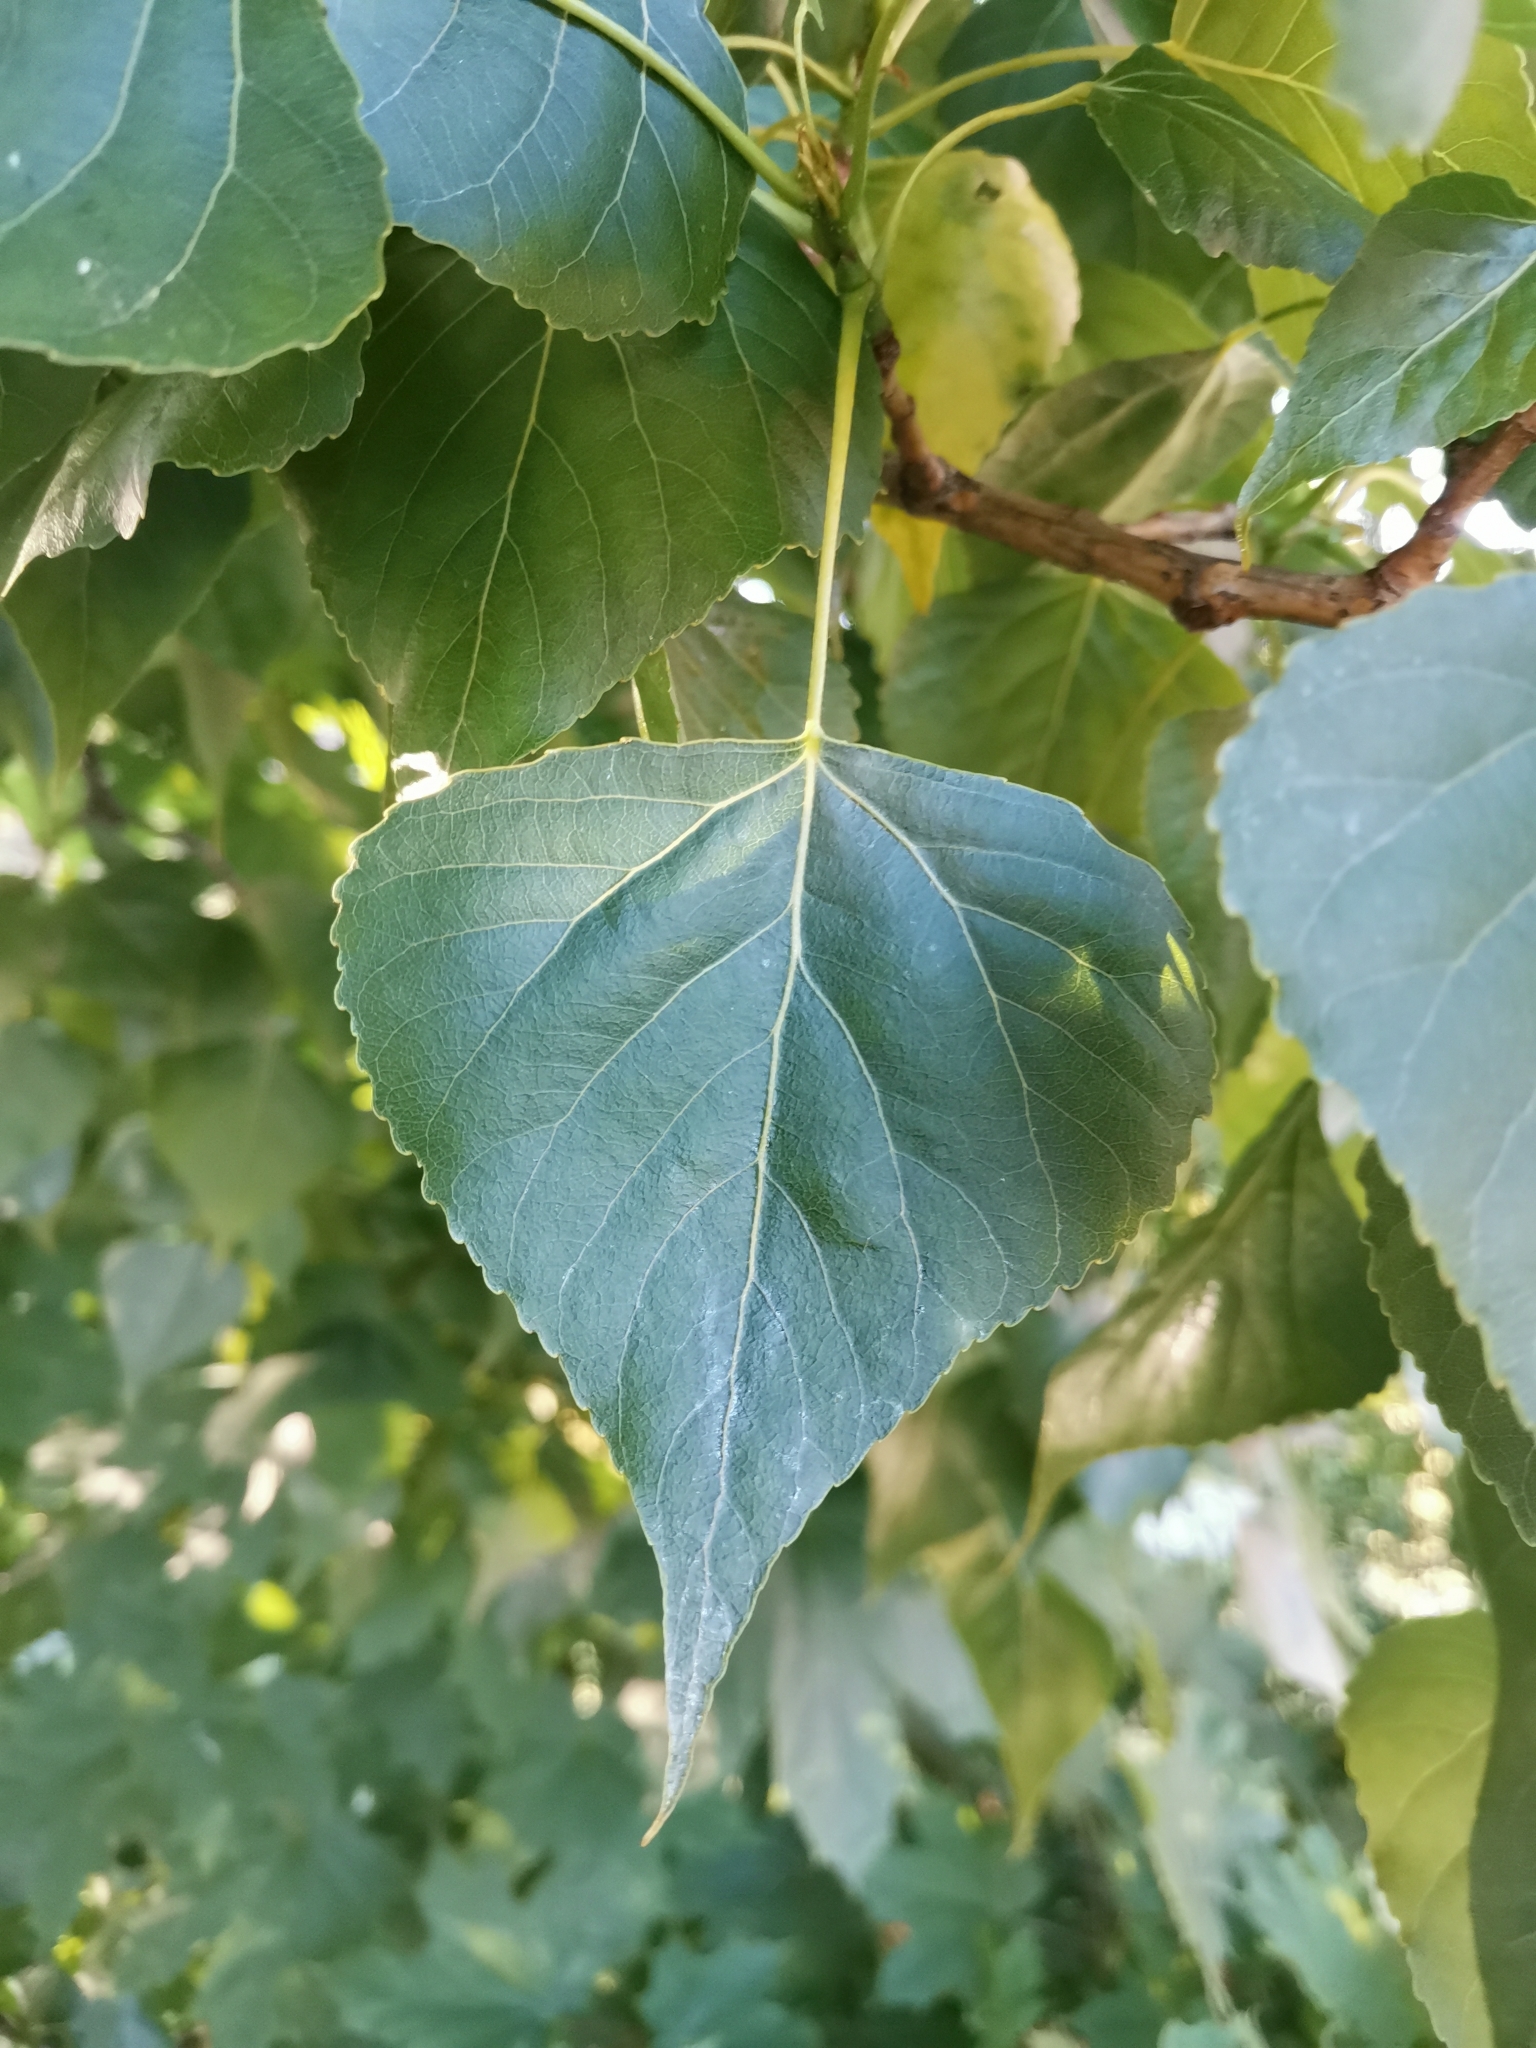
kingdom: Plantae
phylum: Tracheophyta
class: Magnoliopsida
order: Malpighiales
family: Salicaceae
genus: Populus
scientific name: Populus nigra
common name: Black poplar
